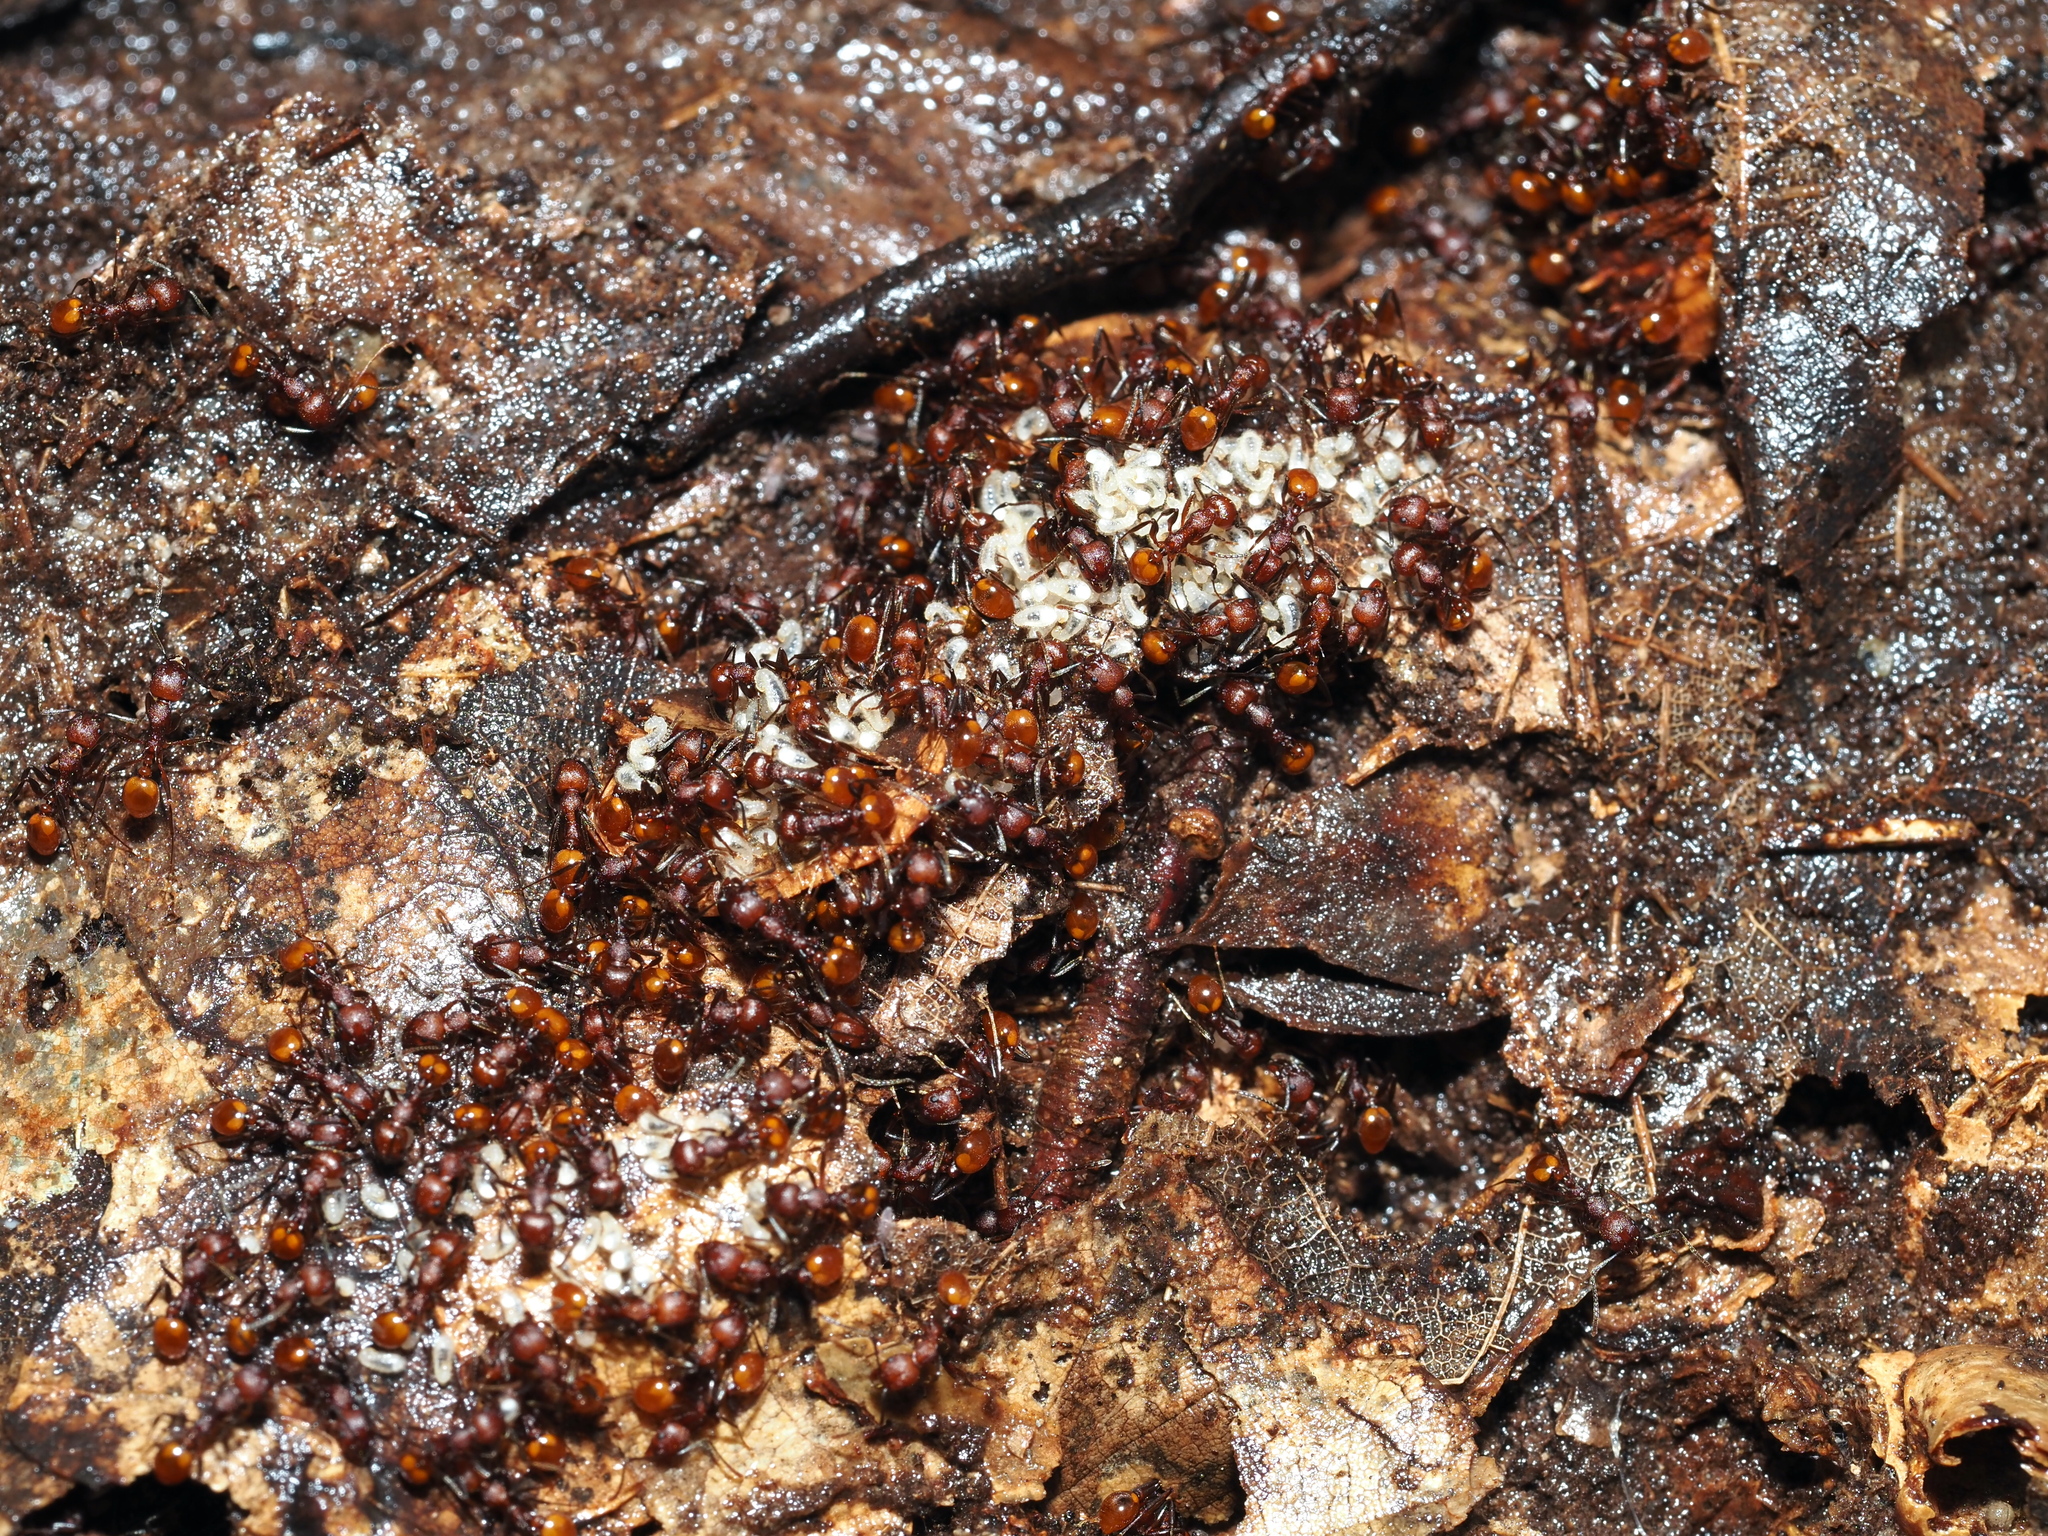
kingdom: Animalia
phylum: Arthropoda
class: Insecta
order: Hymenoptera
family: Formicidae
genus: Aphaenogaster
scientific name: Aphaenogaster tennesseensis
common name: Tennessee thread-waisted ant
